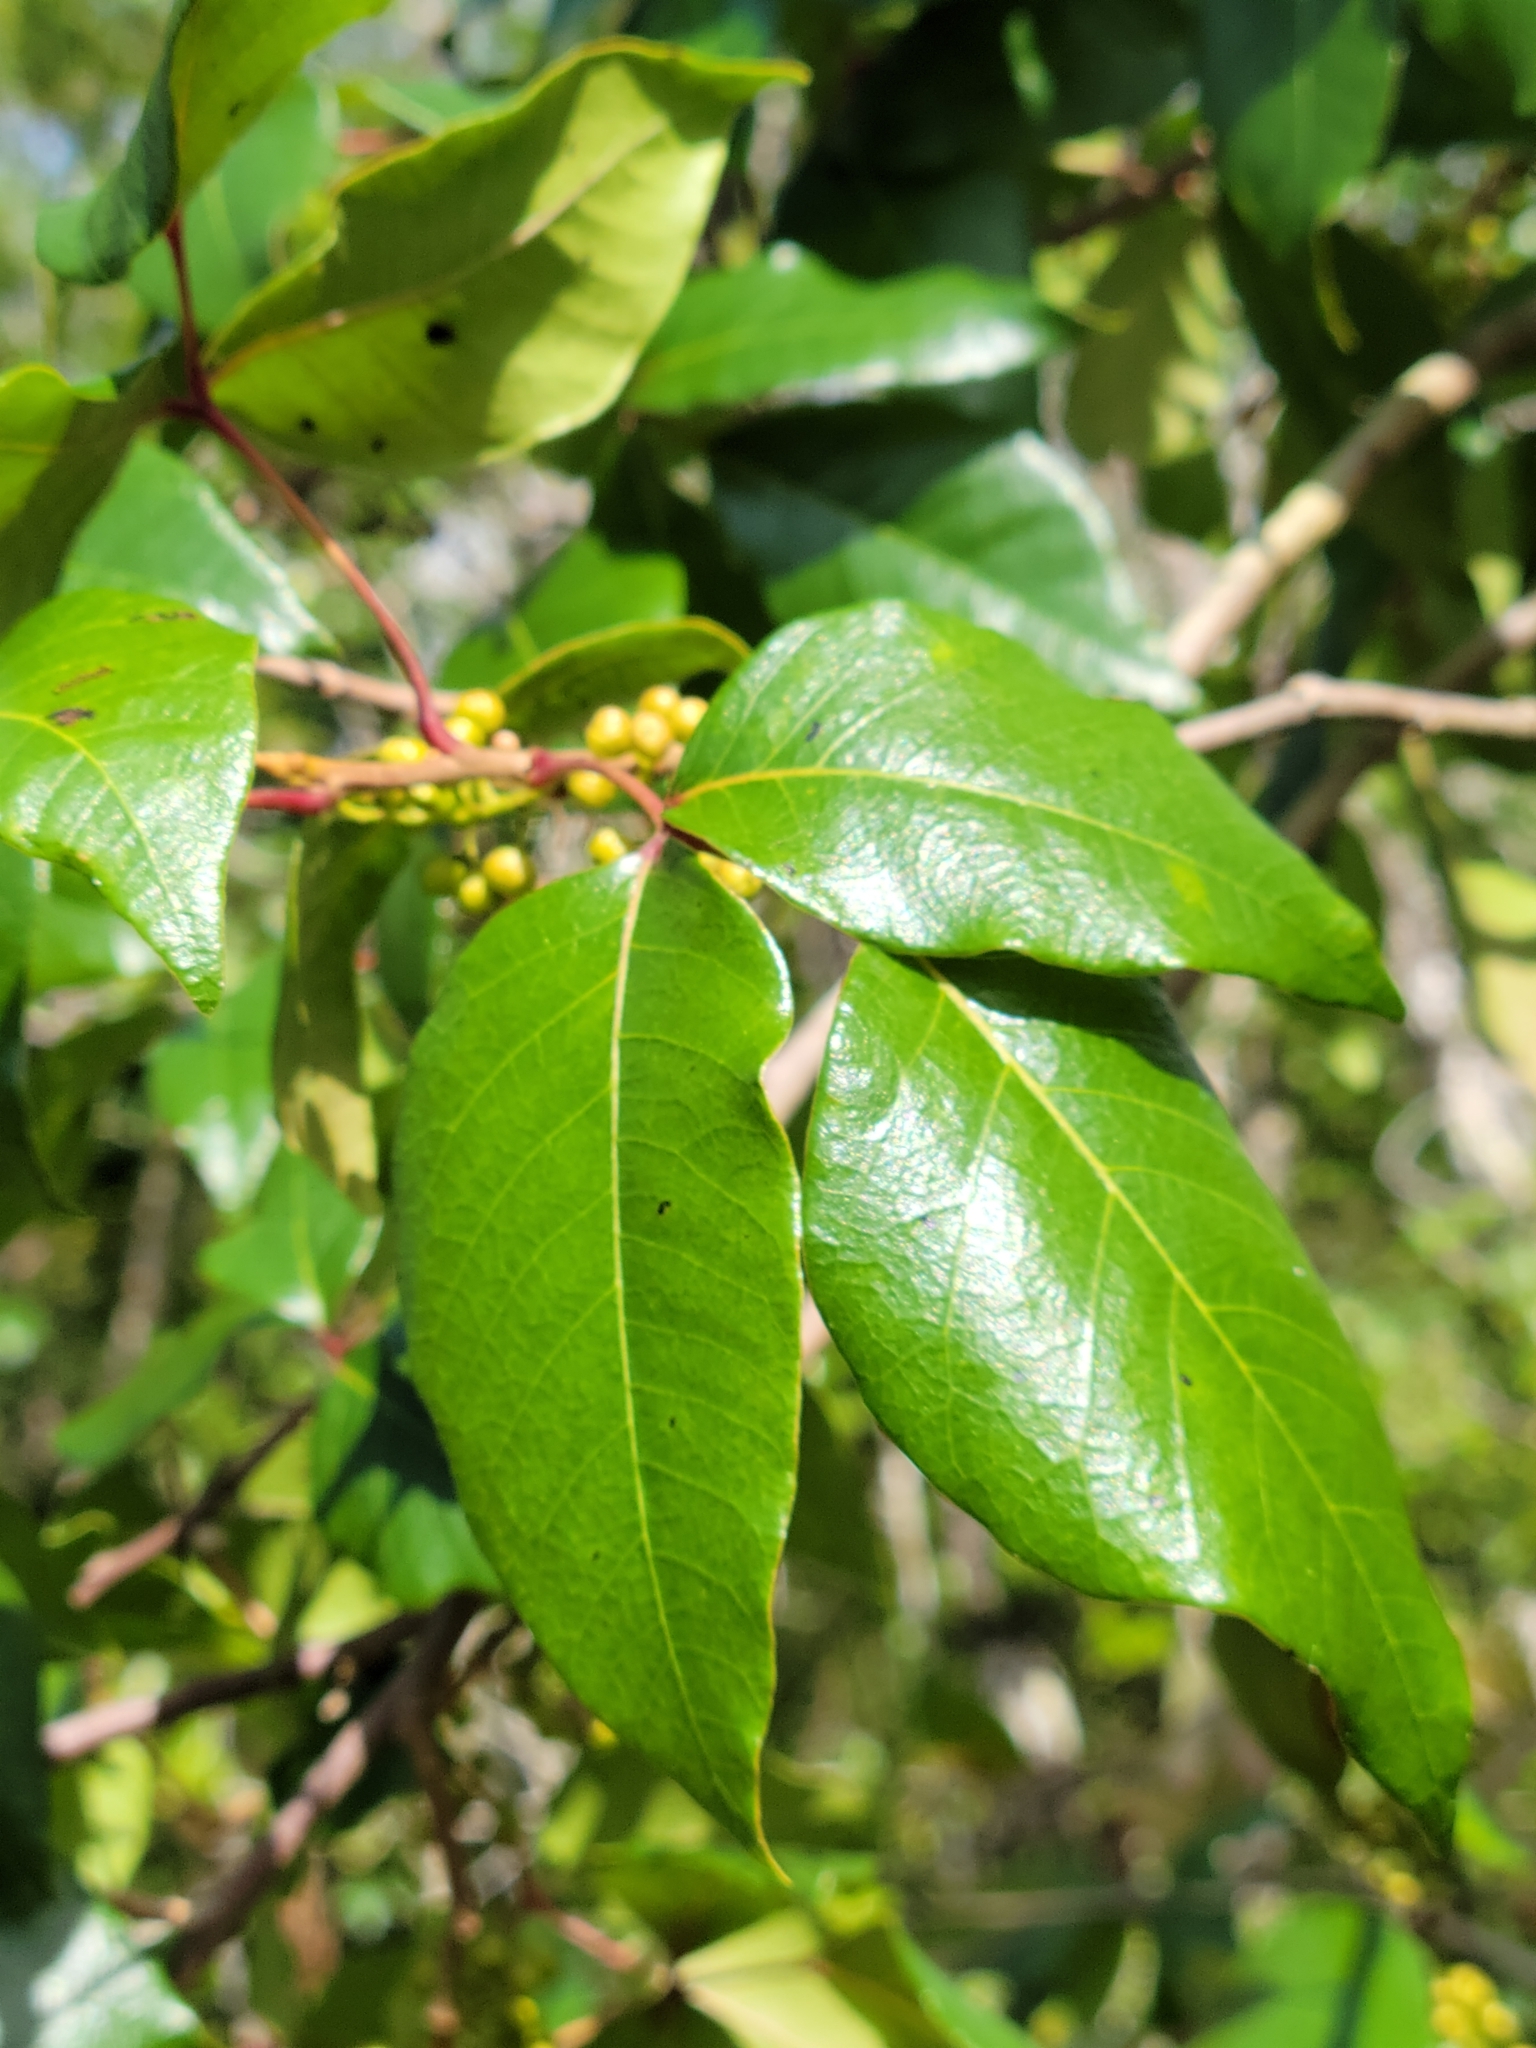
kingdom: Plantae
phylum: Tracheophyta
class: Magnoliopsida
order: Sapindales
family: Anacardiaceae
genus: Toxicodendron
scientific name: Toxicodendron radicans
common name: Poison ivy
